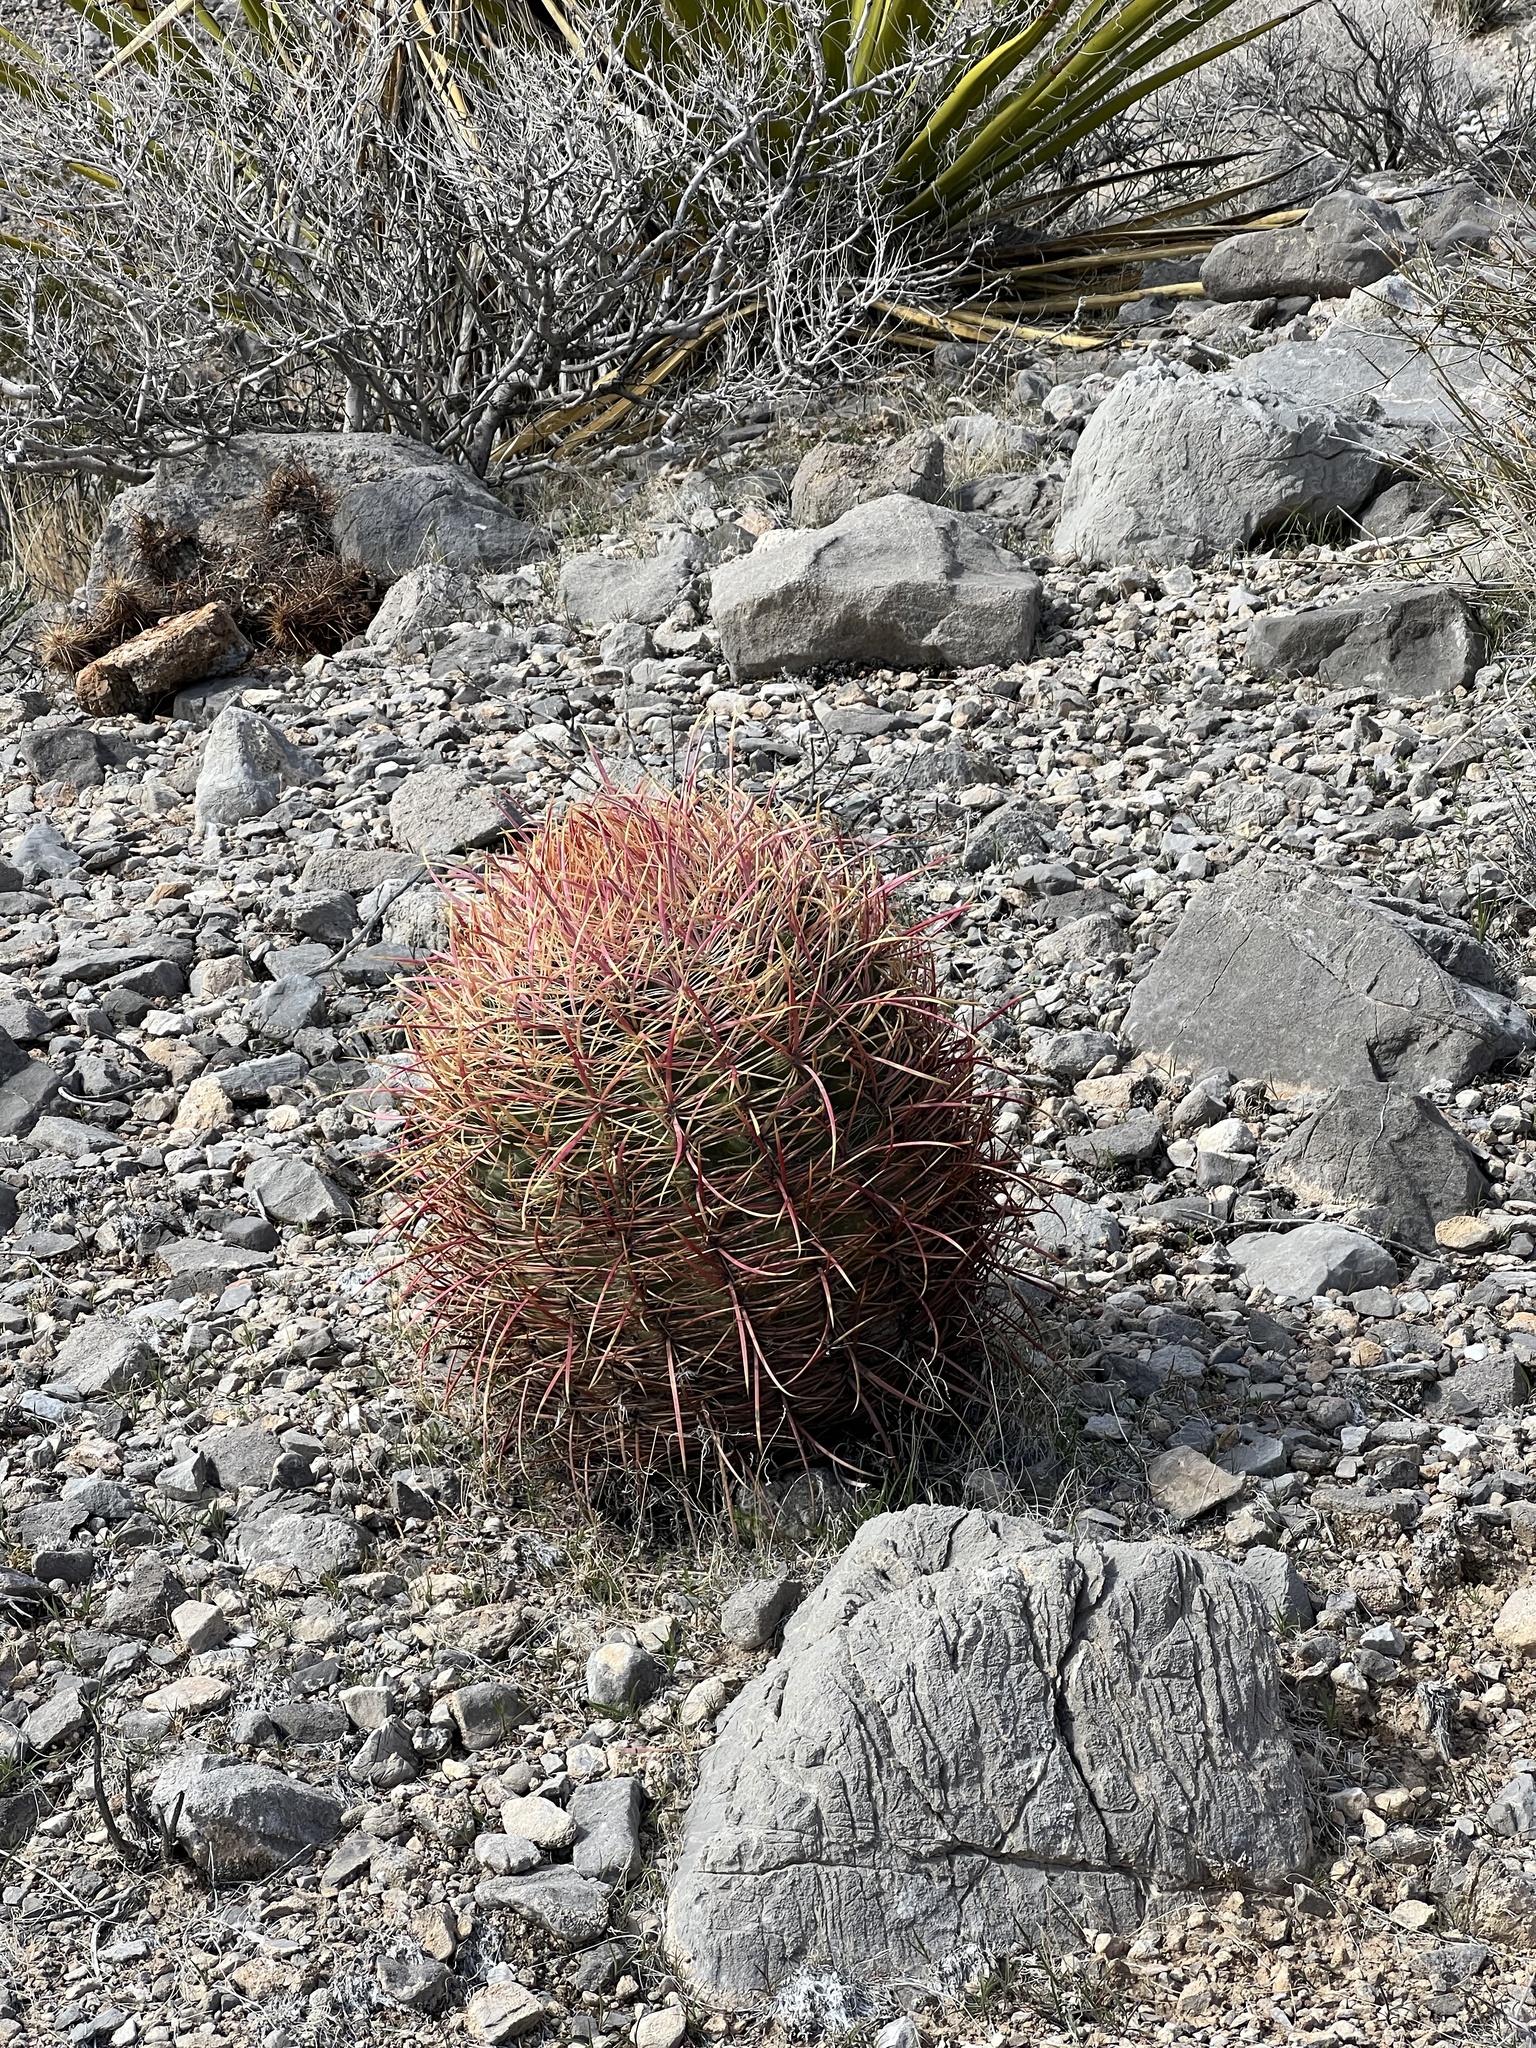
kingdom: Plantae
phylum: Tracheophyta
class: Magnoliopsida
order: Caryophyllales
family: Cactaceae
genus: Ferocactus
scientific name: Ferocactus cylindraceus
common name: California barrel cactus
